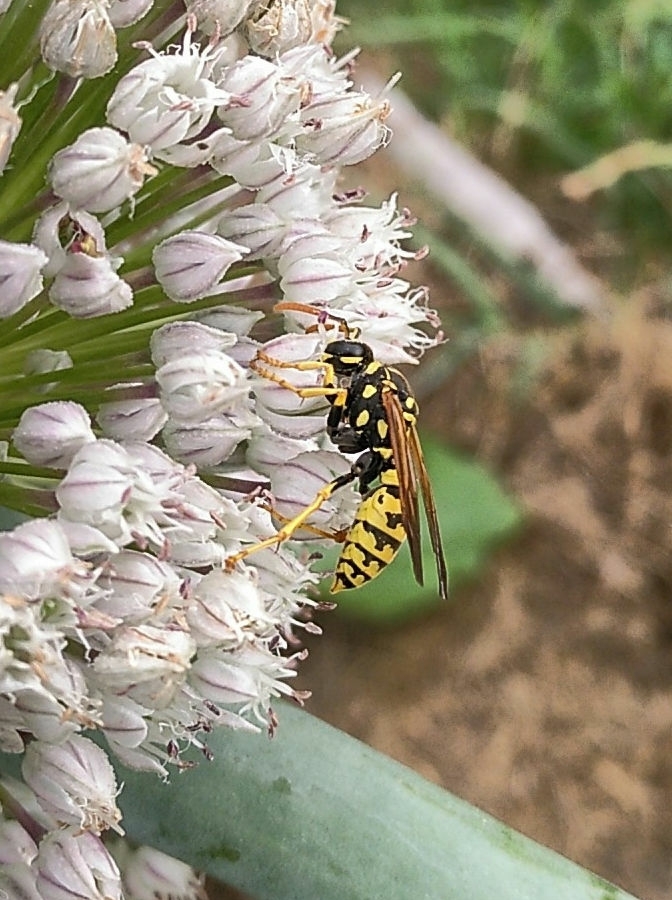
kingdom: Animalia
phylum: Arthropoda
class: Insecta
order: Hymenoptera
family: Eumenidae
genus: Polistes
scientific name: Polistes dominula
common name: Paper wasp
